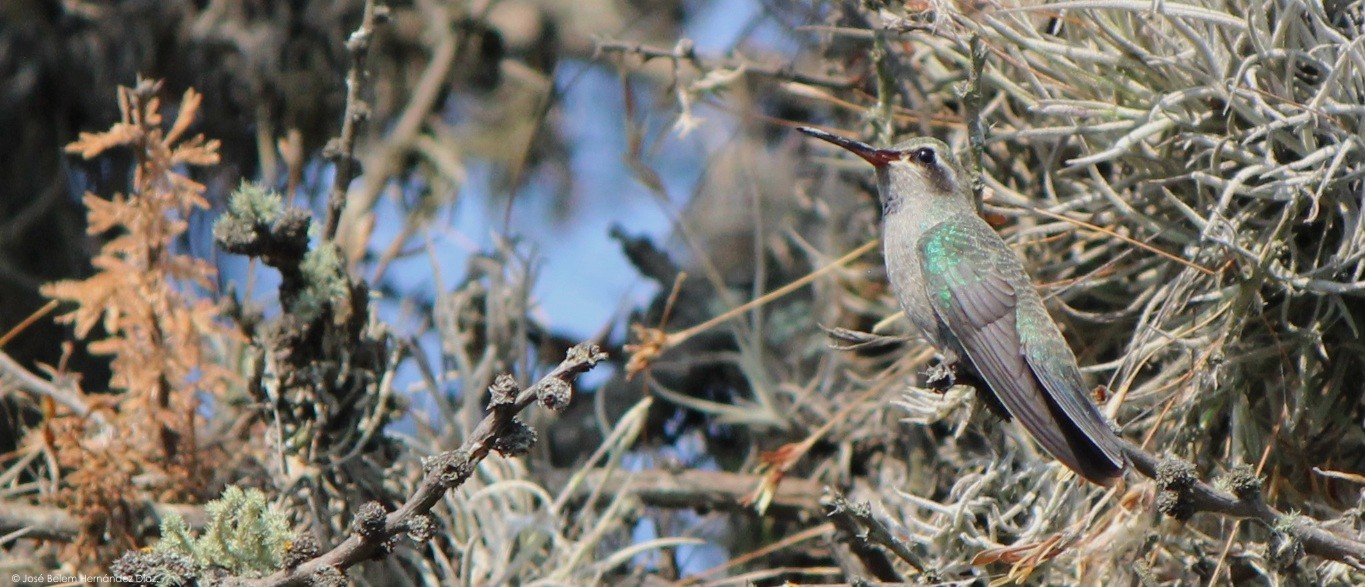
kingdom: Animalia
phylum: Chordata
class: Aves
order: Apodiformes
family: Trochilidae
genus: Cynanthus
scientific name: Cynanthus latirostris
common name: Broad-billed hummingbird
